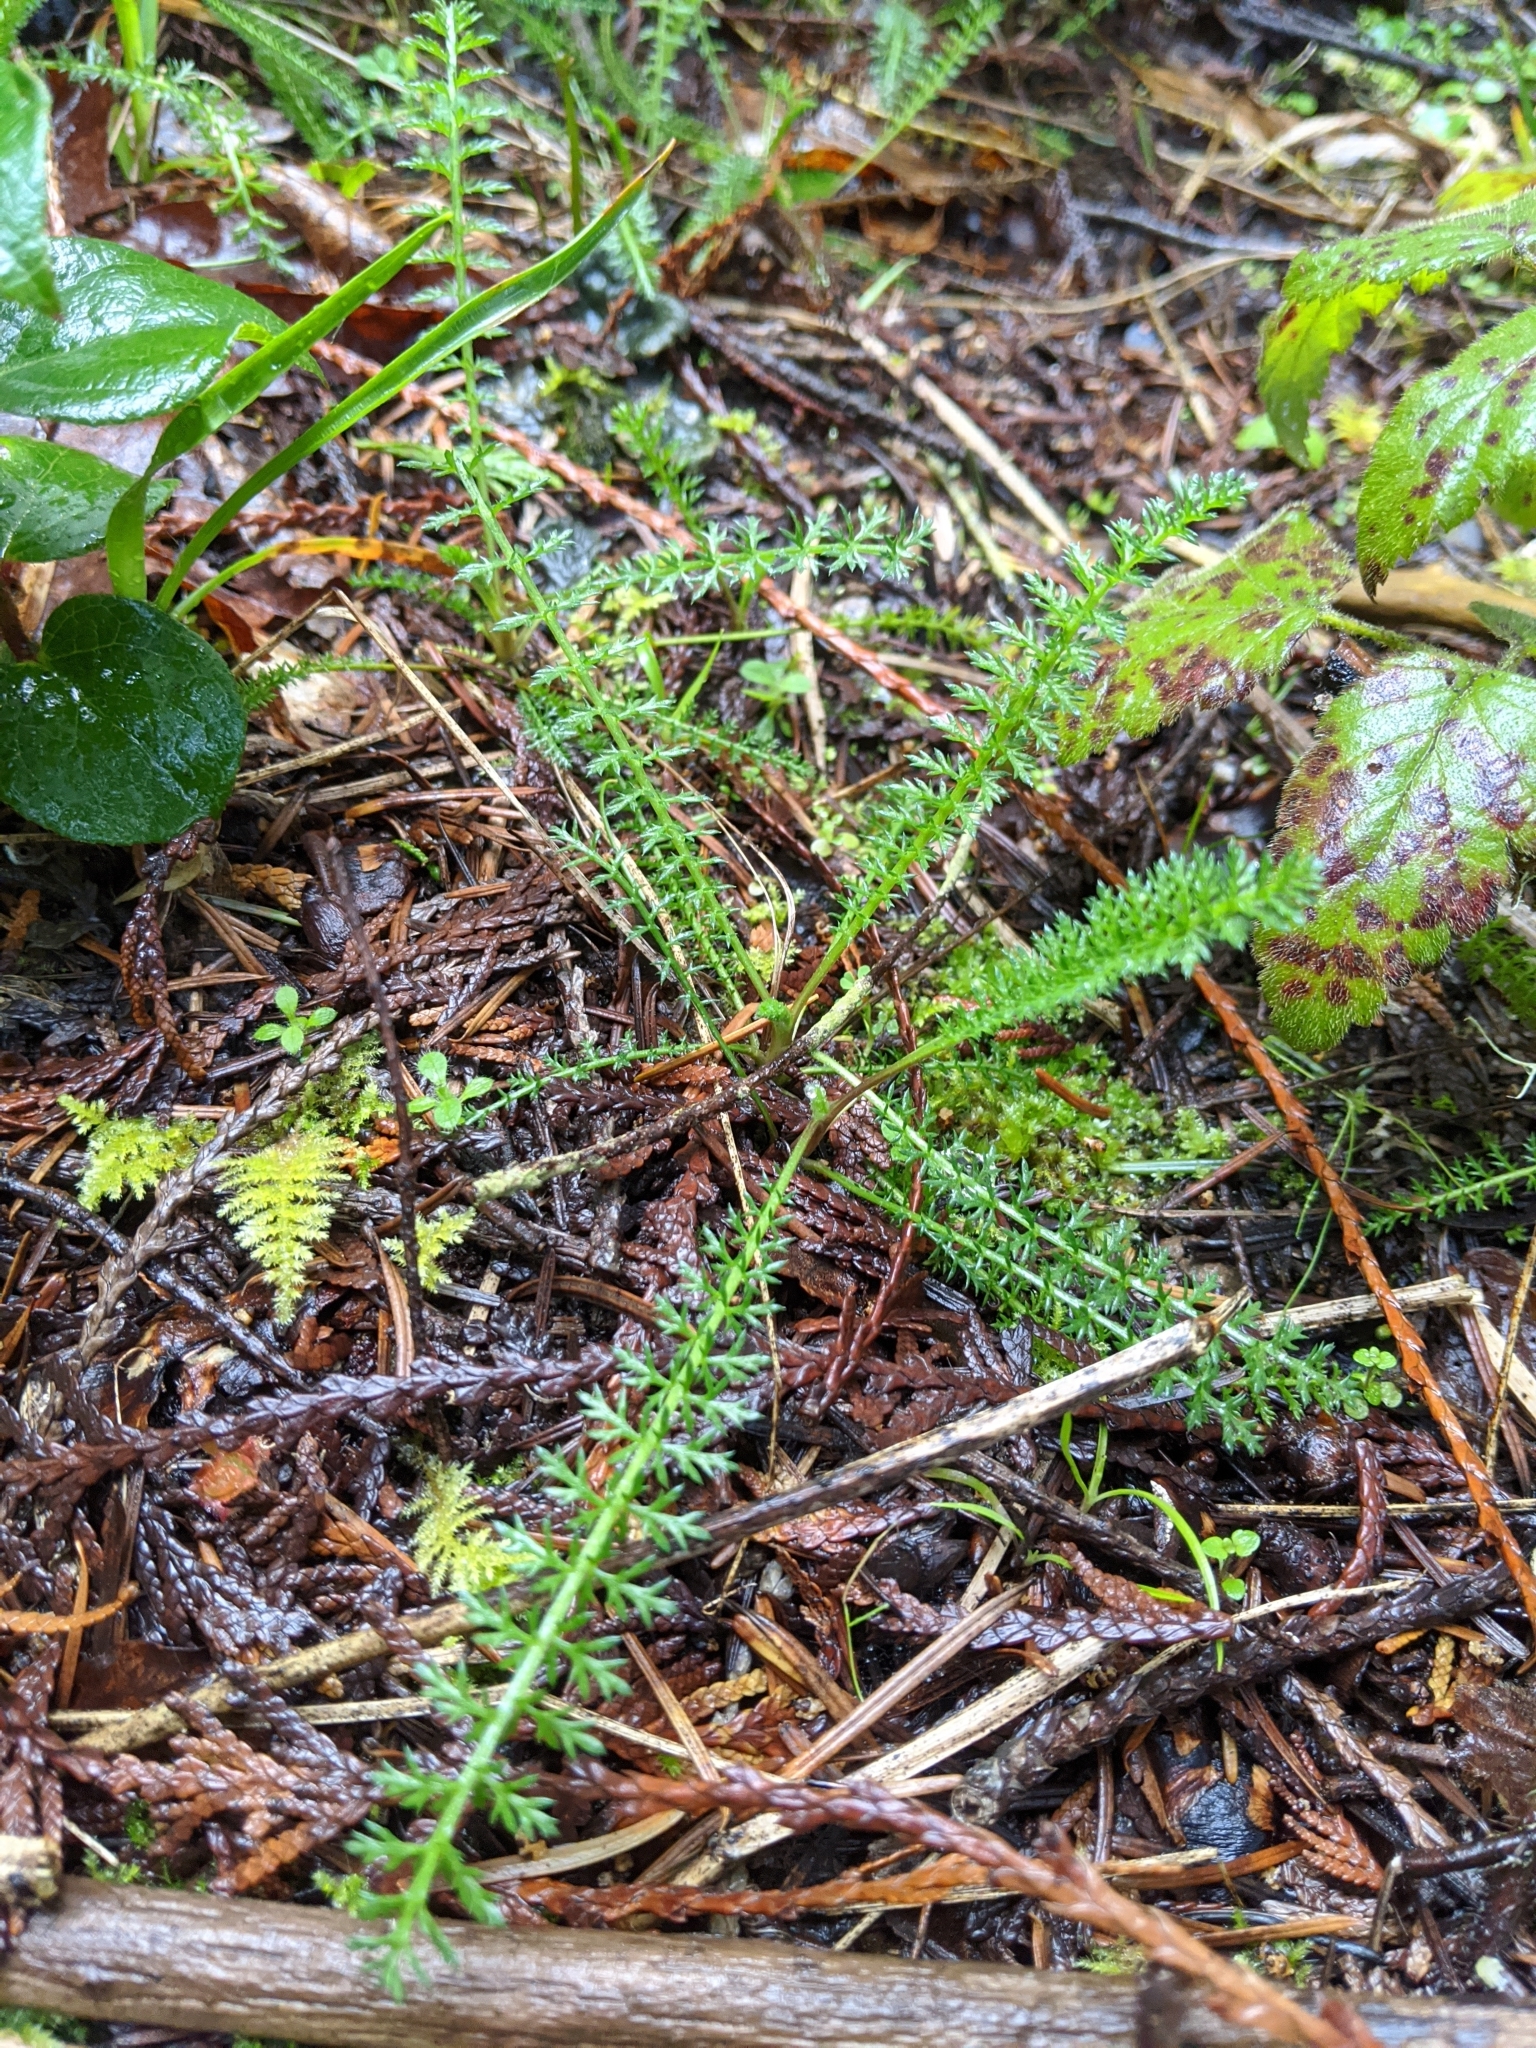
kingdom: Plantae
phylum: Tracheophyta
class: Magnoliopsida
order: Asterales
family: Asteraceae
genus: Achillea
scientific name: Achillea millefolium
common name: Yarrow
